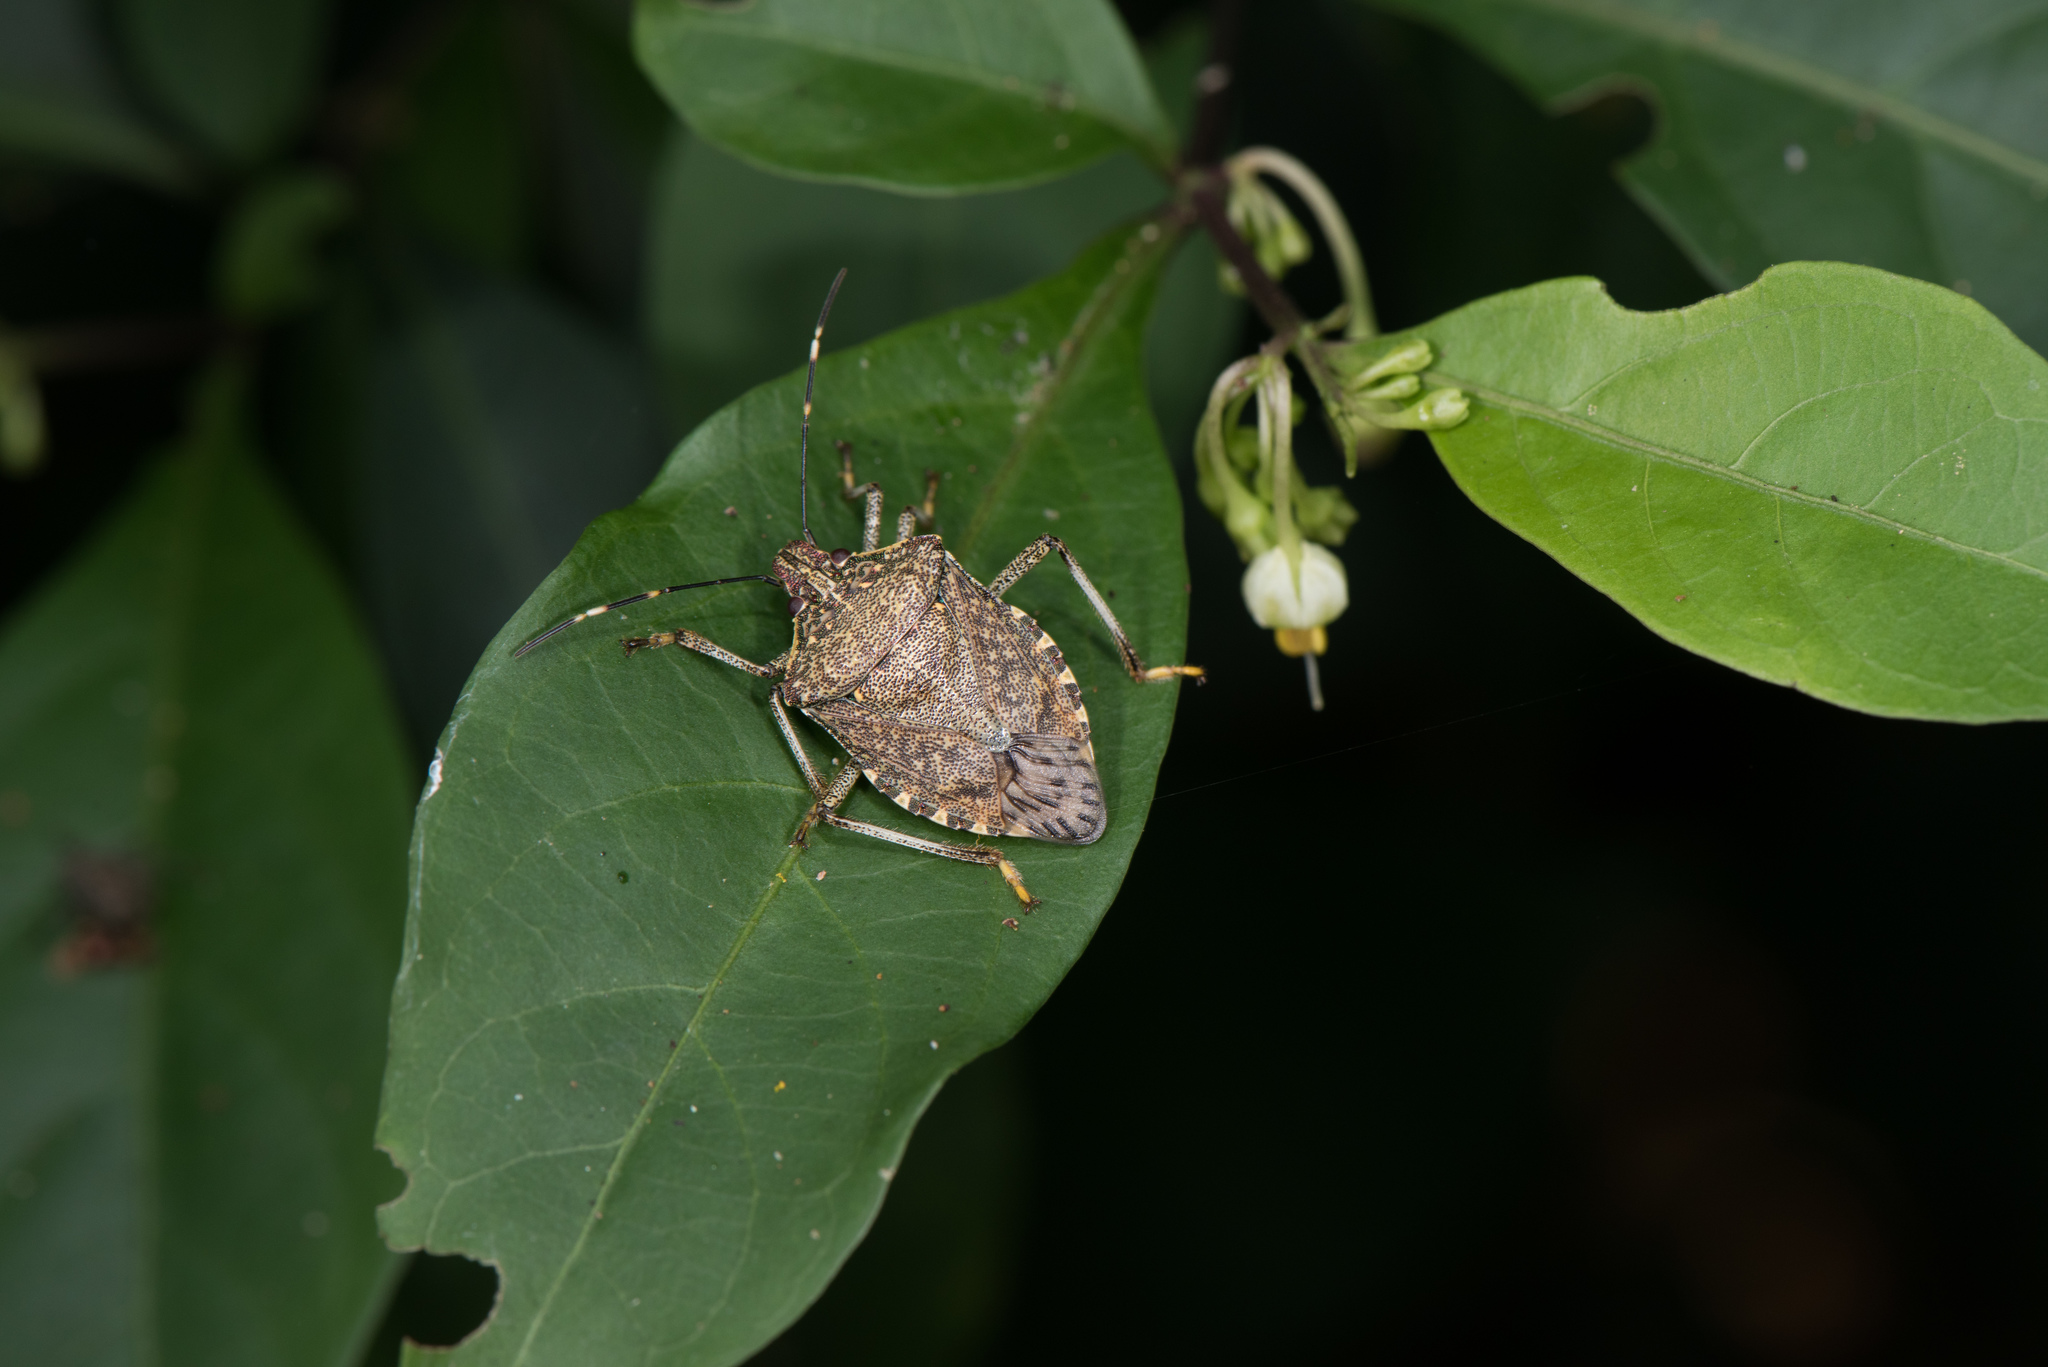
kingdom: Animalia
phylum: Arthropoda
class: Insecta
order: Hemiptera
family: Pentatomidae
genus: Erthesina
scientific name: Erthesina fullo
